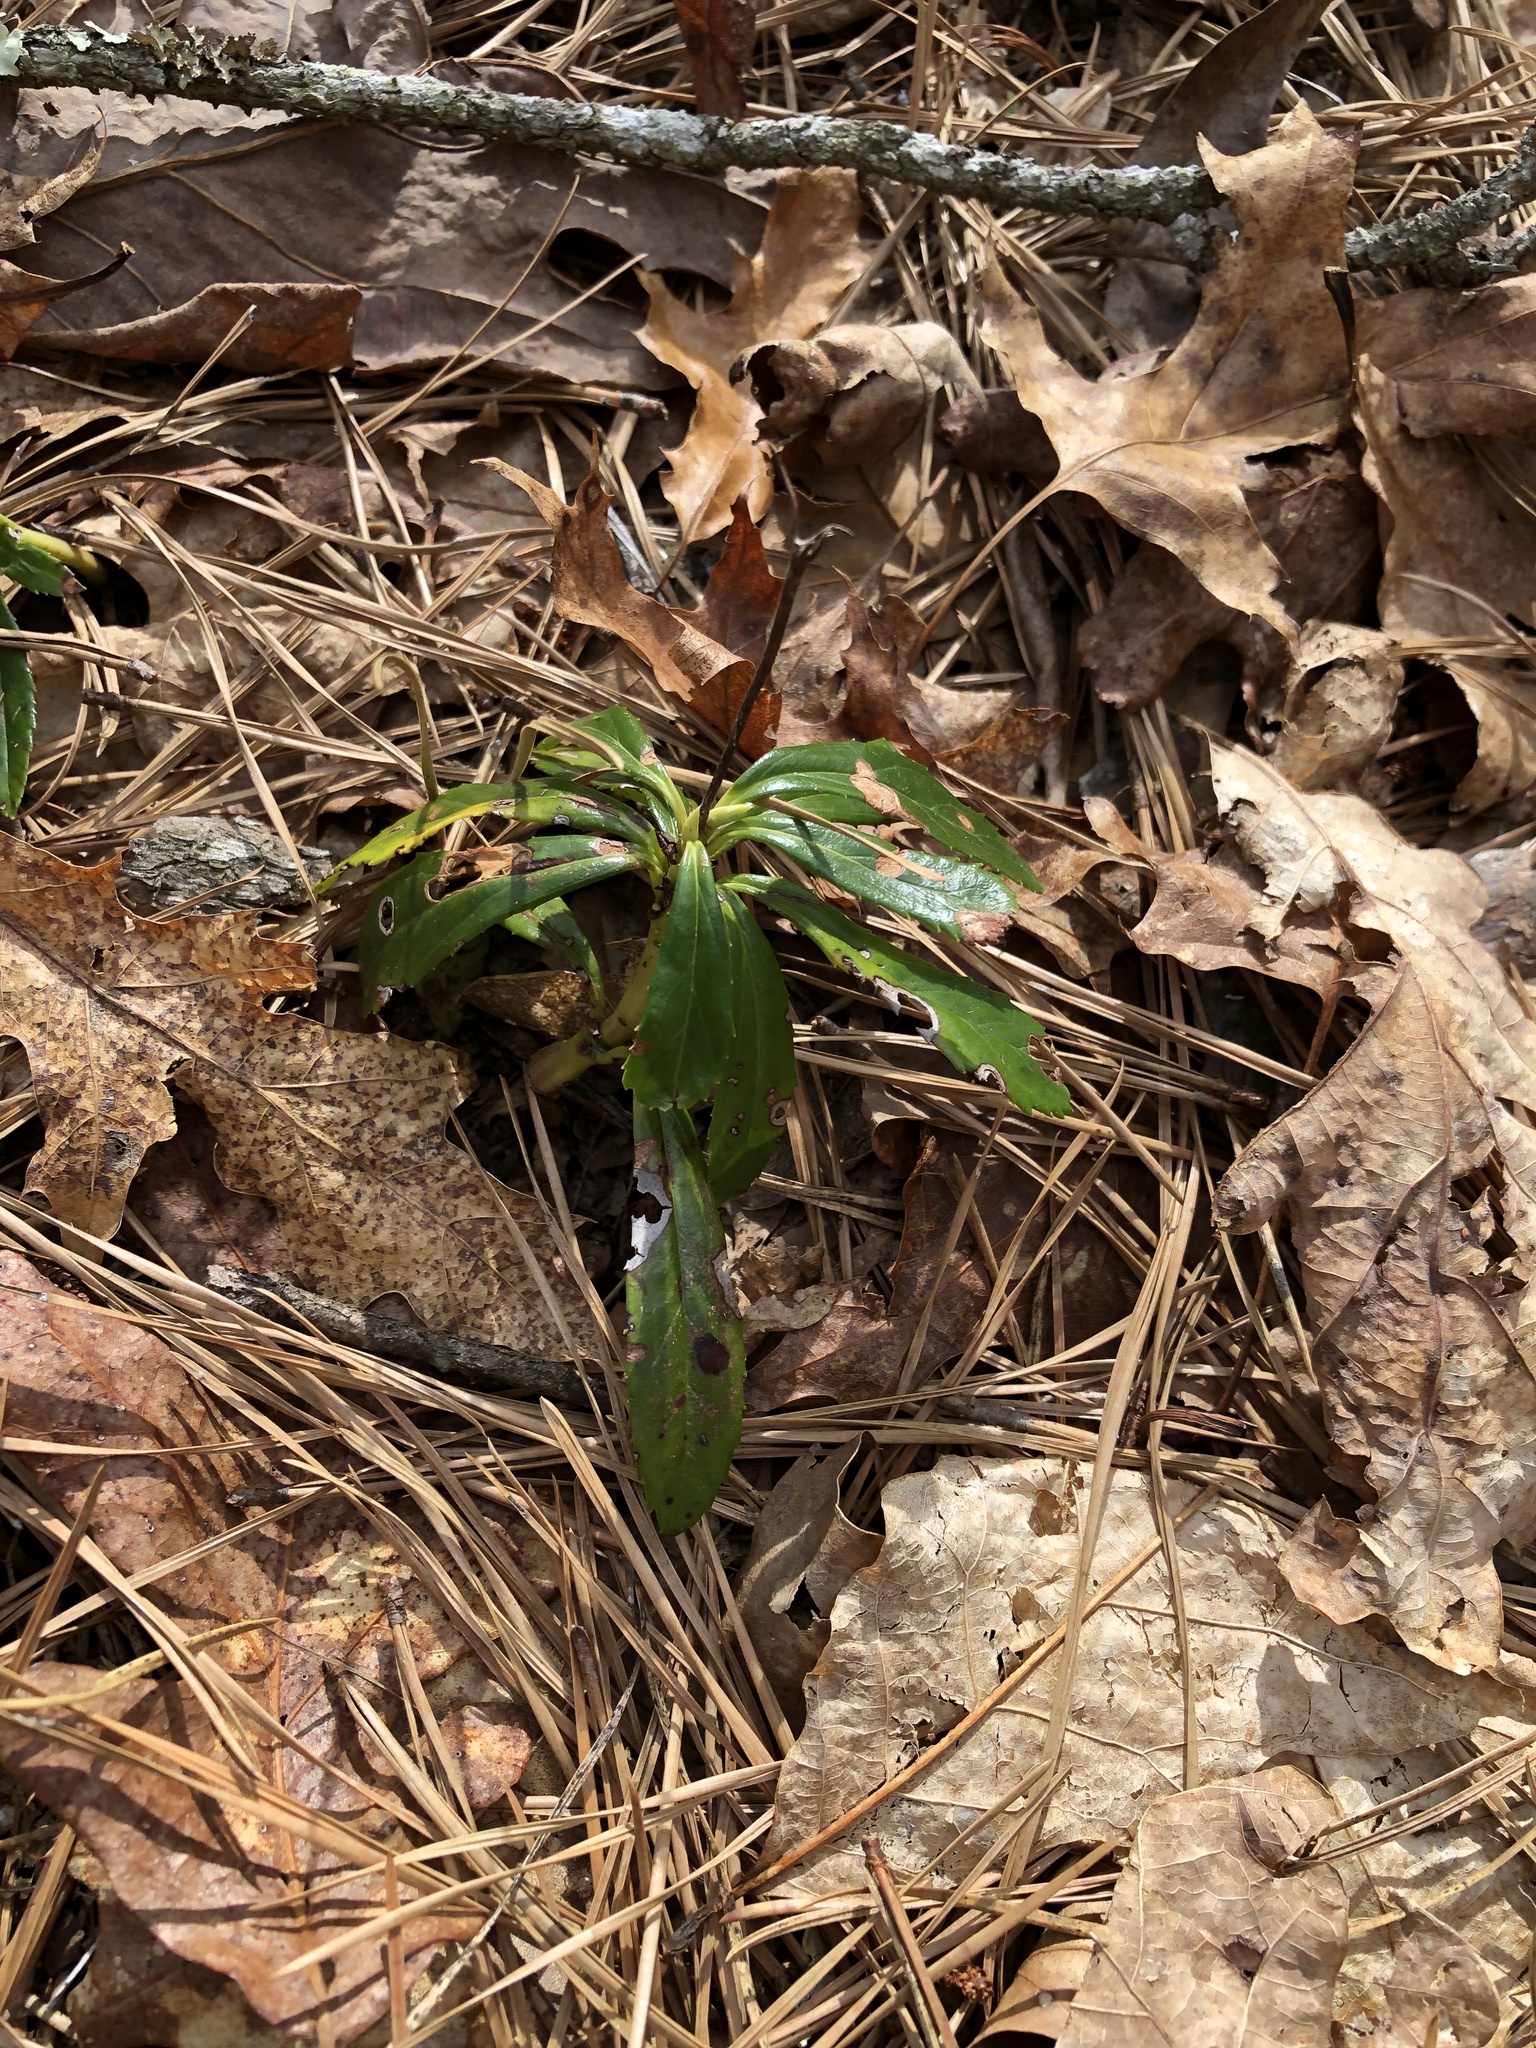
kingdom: Plantae
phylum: Tracheophyta
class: Magnoliopsida
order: Ericales
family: Ericaceae
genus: Chimaphila
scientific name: Chimaphila umbellata
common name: Pipsissewa
